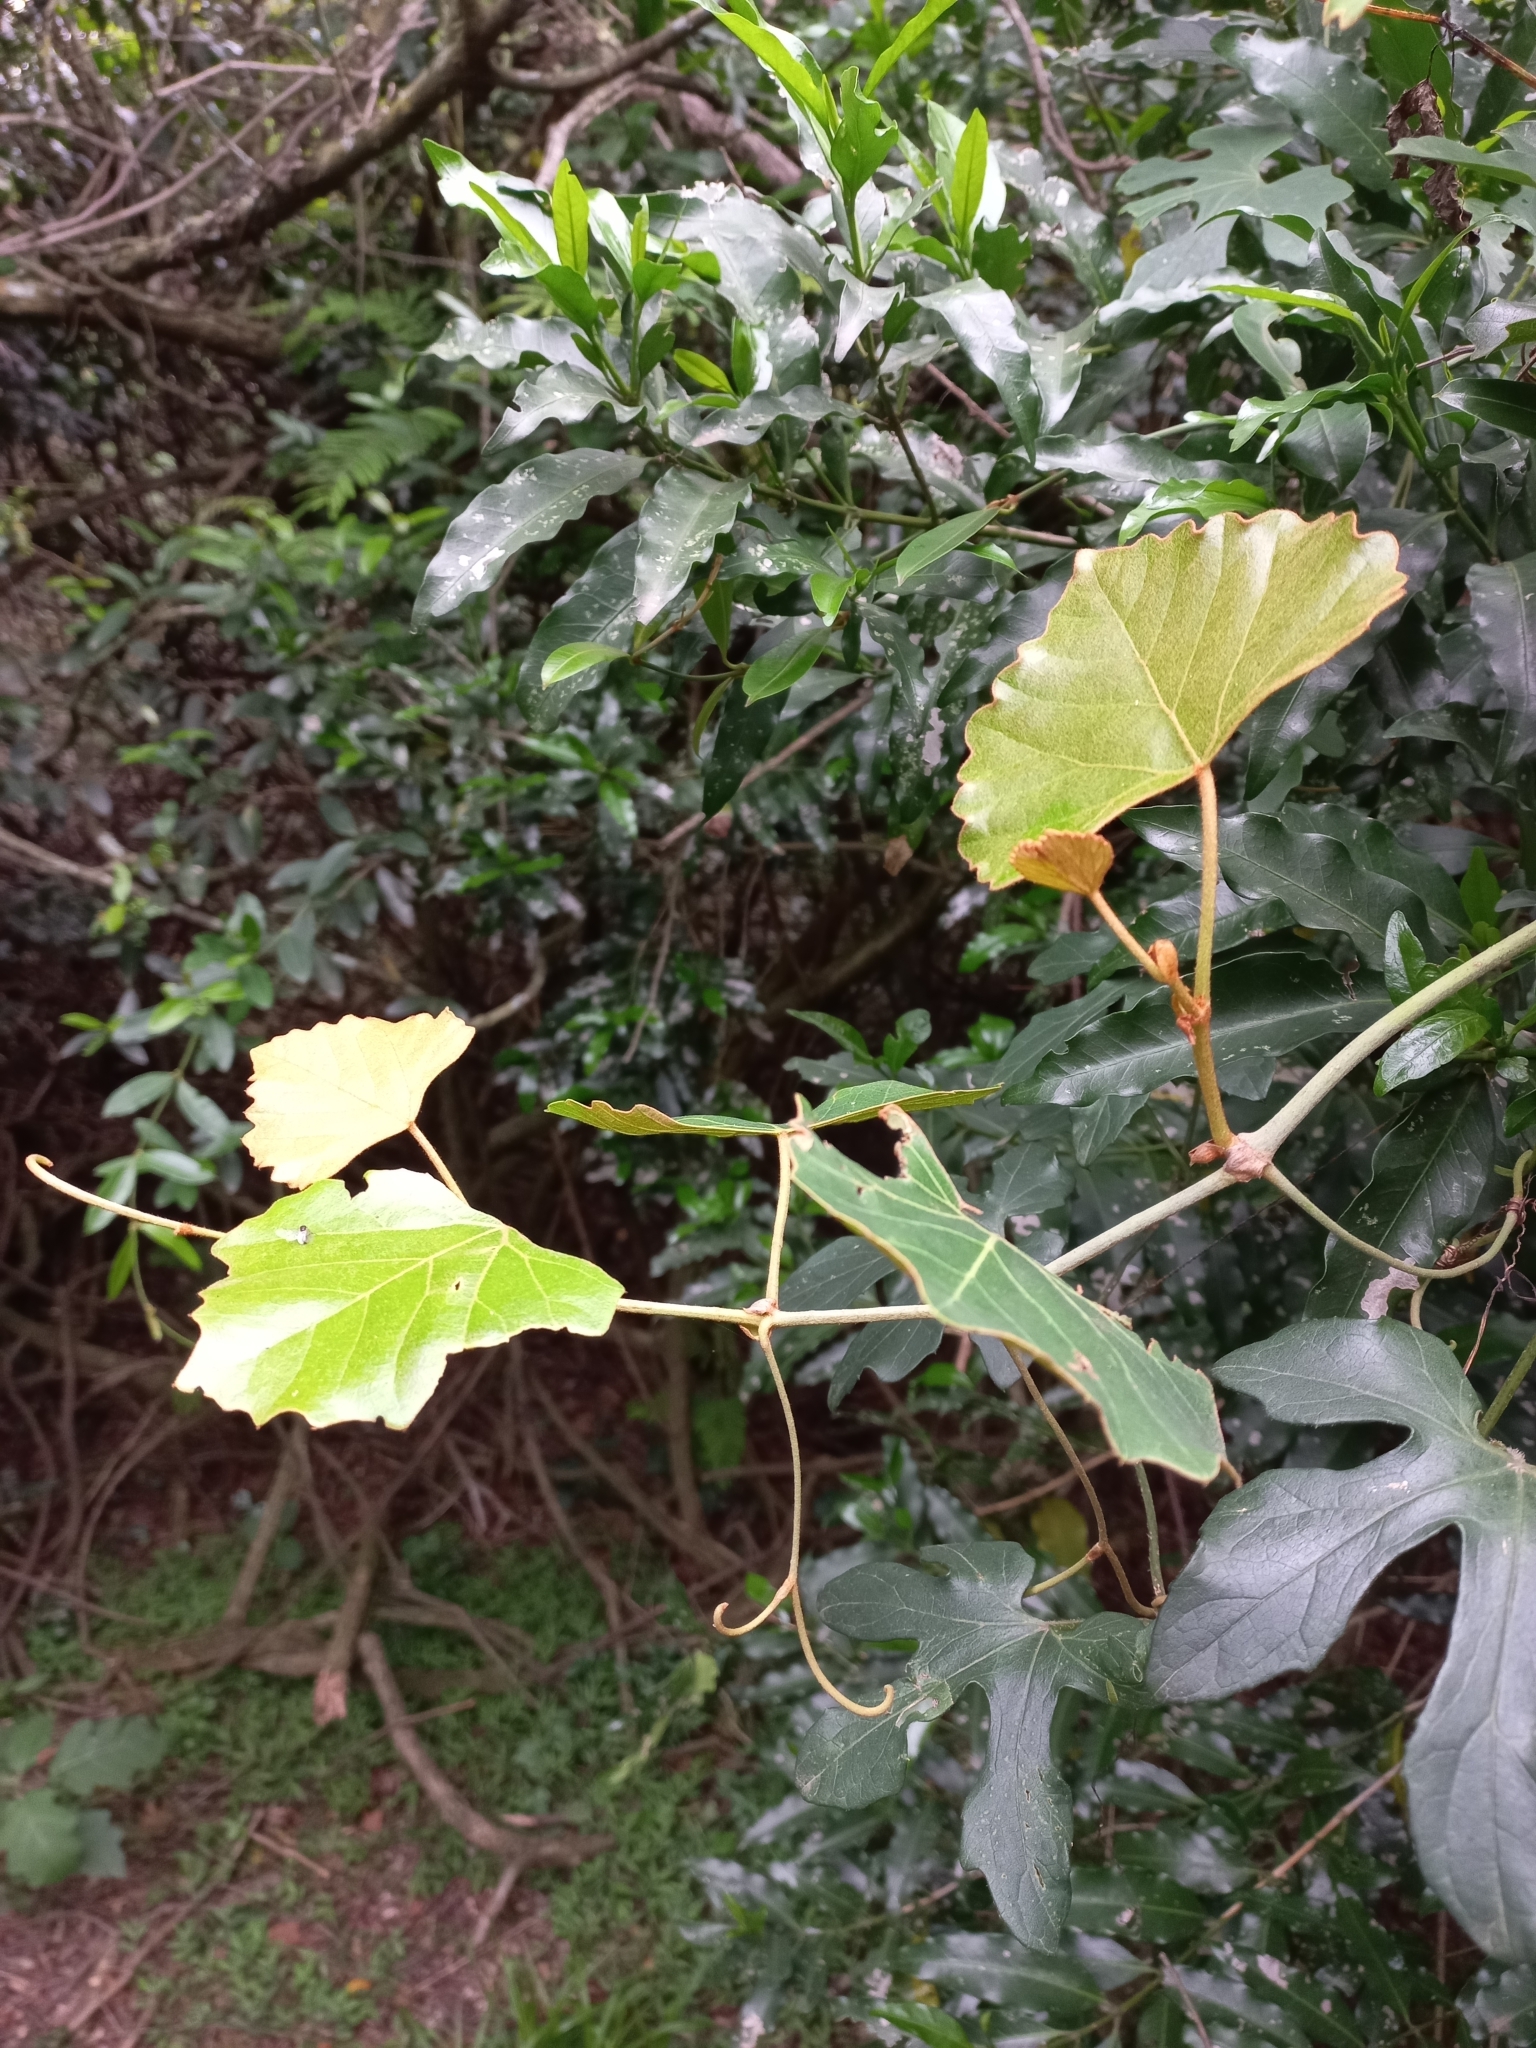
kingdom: Plantae
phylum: Tracheophyta
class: Magnoliopsida
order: Vitales
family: Vitaceae
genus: Rhoicissus
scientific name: Rhoicissus tomentosa
